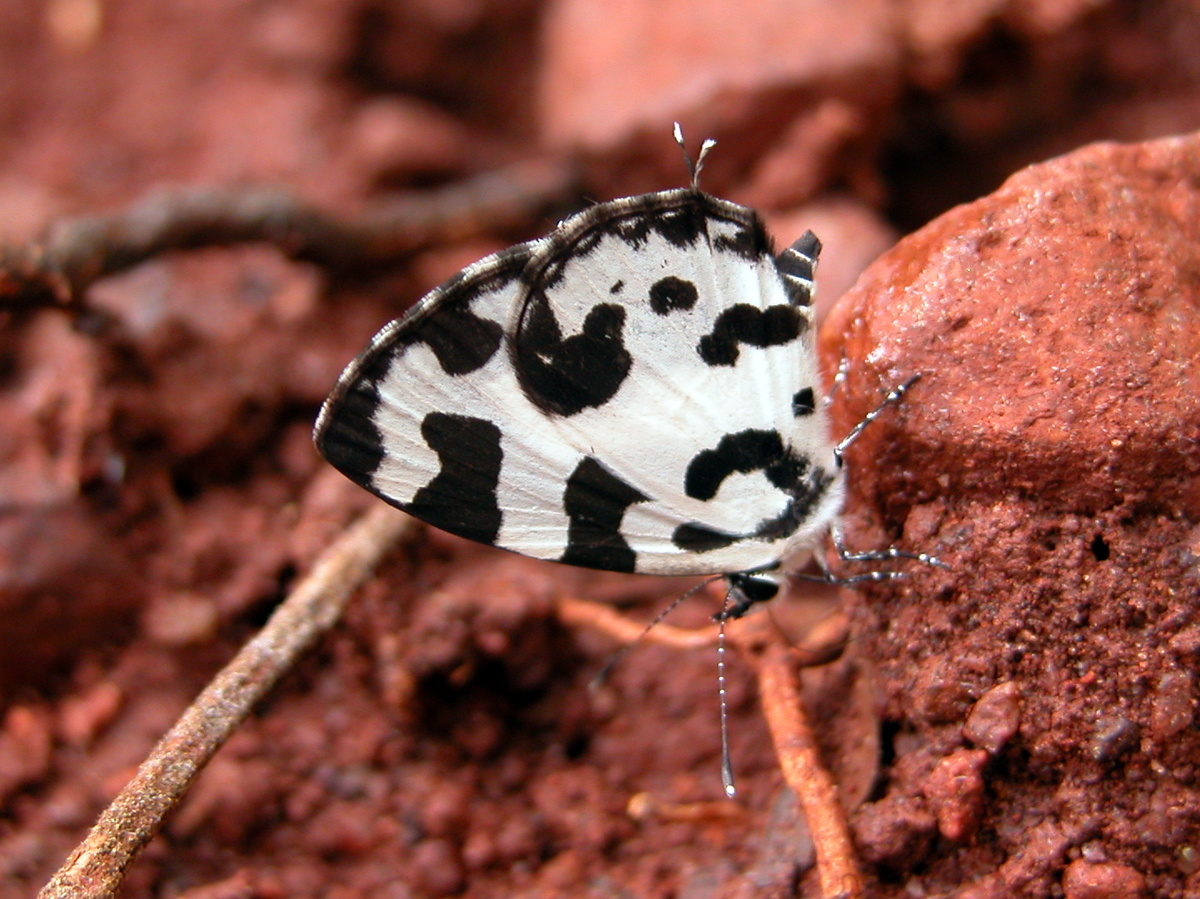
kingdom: Animalia
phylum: Arthropoda
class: Insecta
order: Lepidoptera
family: Lycaenidae
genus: Caleta
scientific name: Caleta decidia
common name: Angled pierrot
